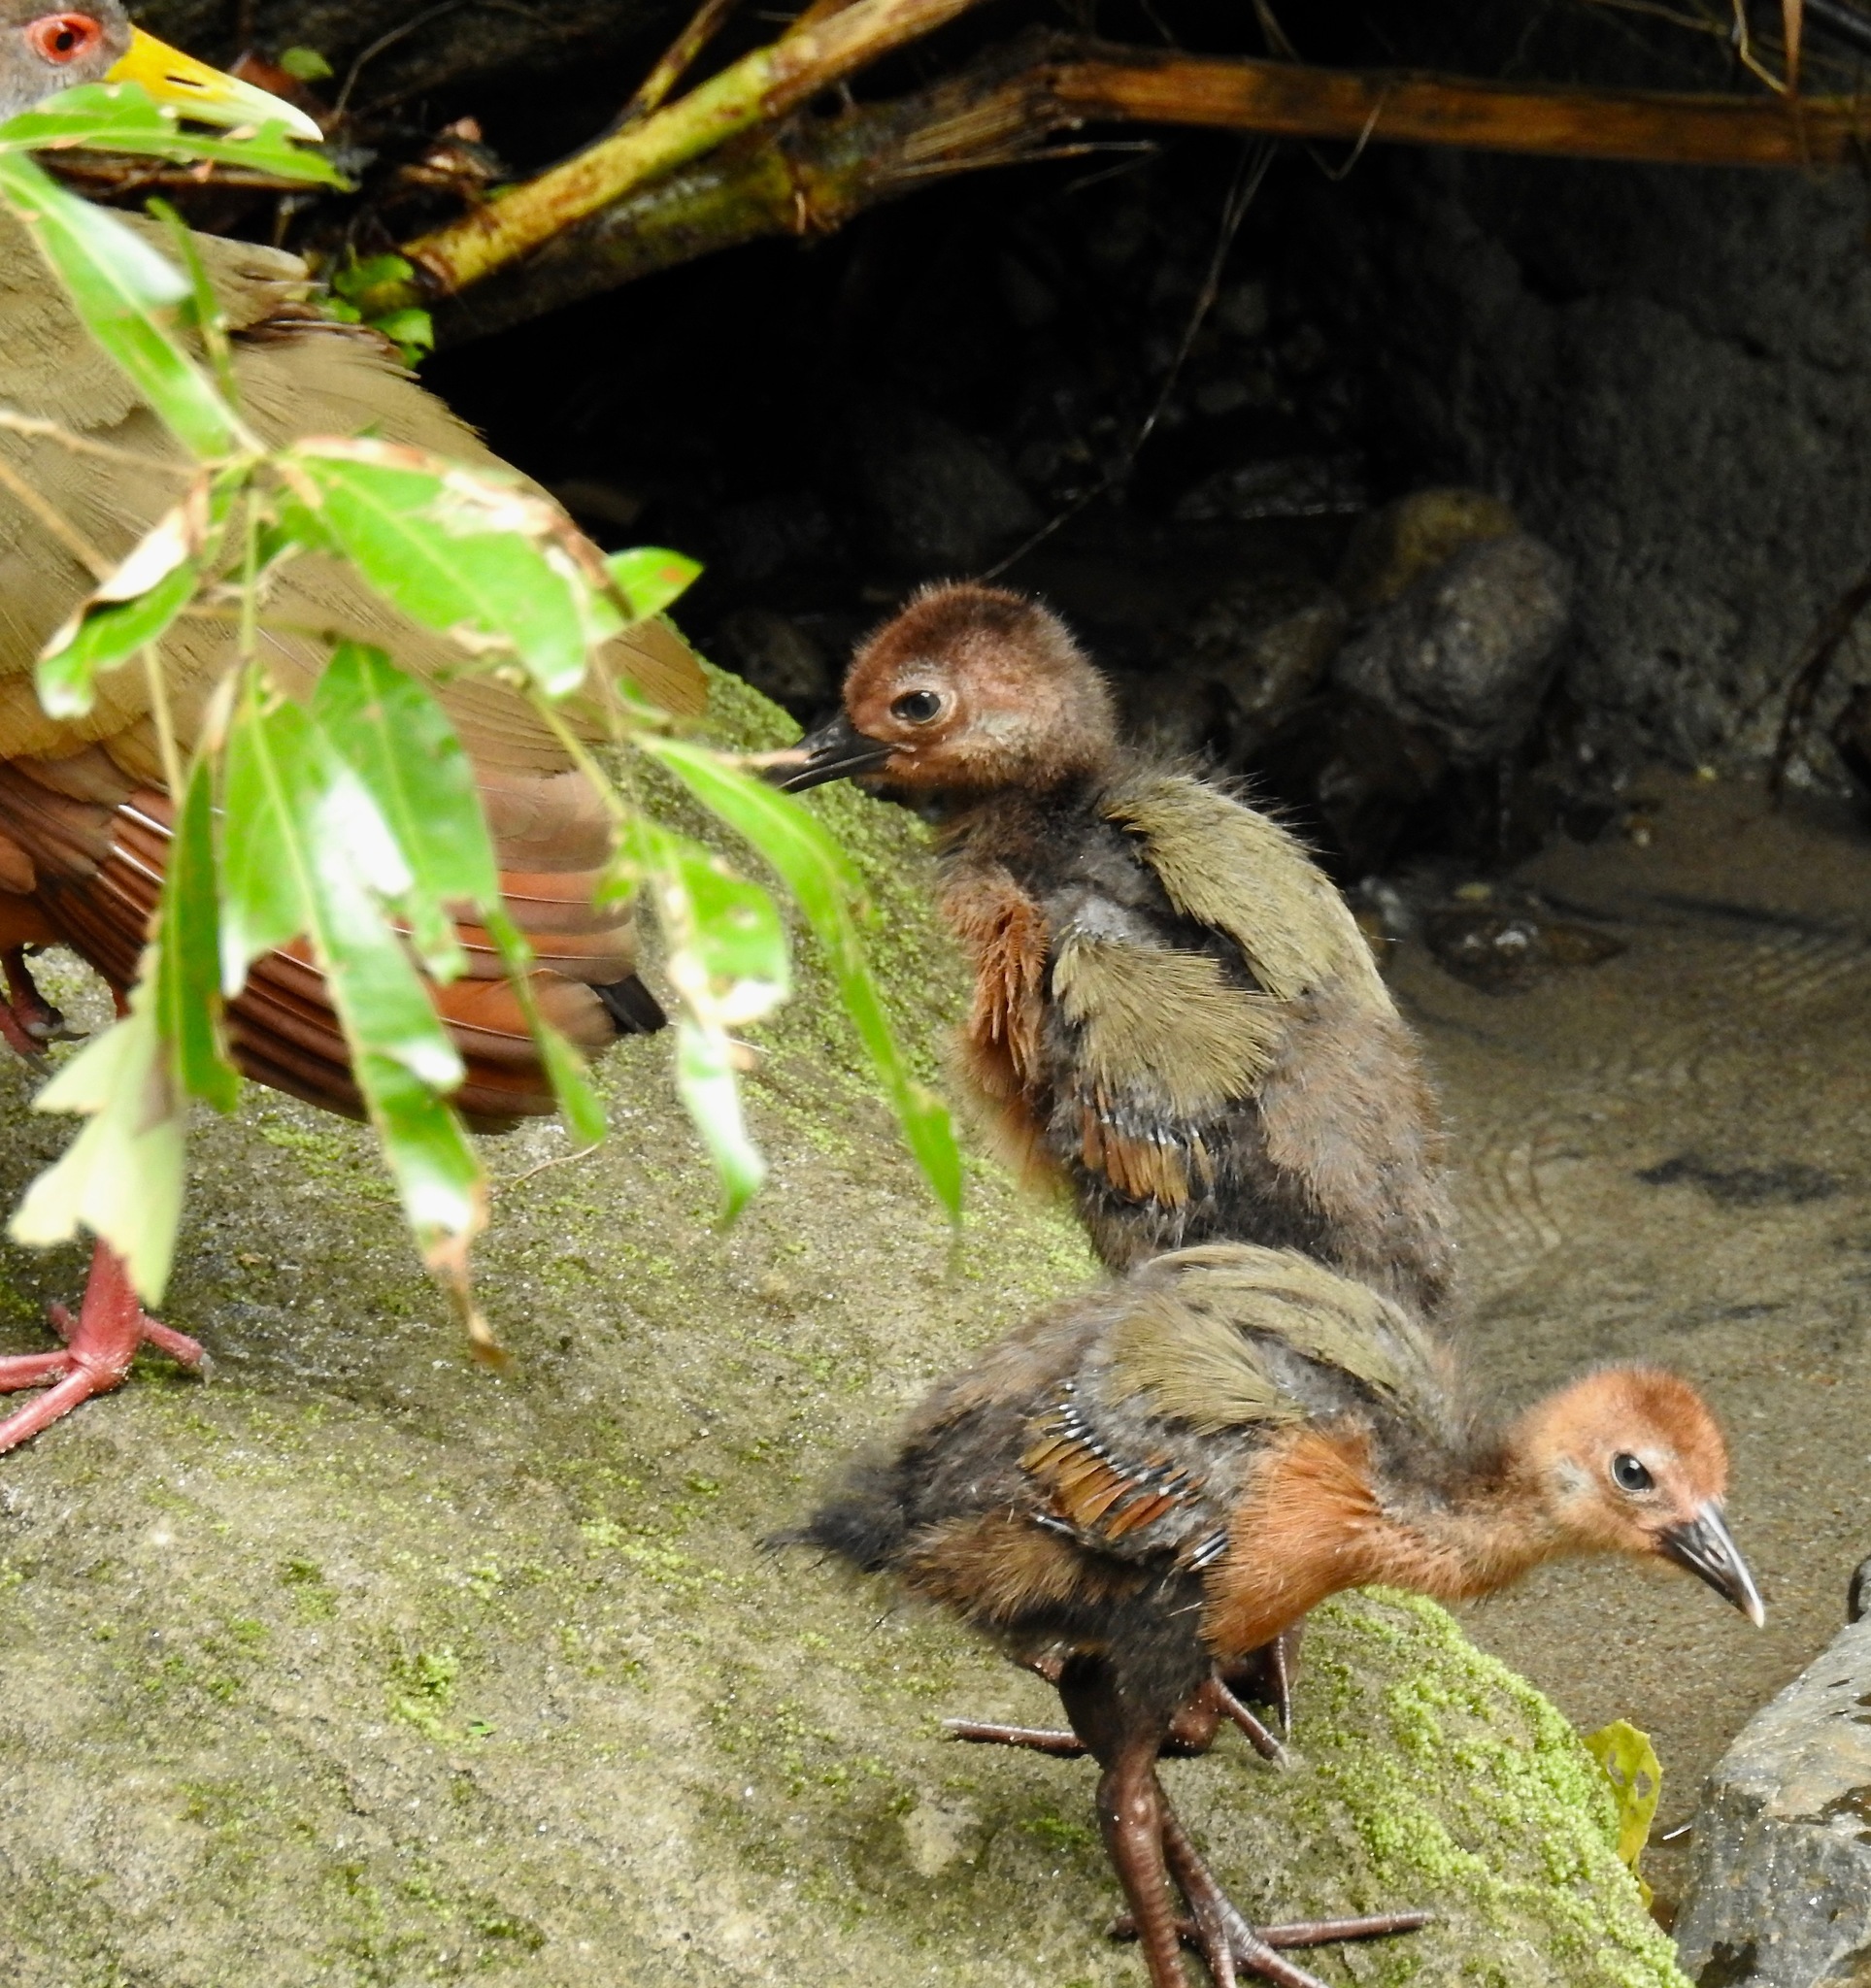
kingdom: Animalia
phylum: Chordata
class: Aves
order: Gruiformes
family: Rallidae
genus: Aramides
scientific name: Aramides cajanea
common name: Gray-necked wood-rail
